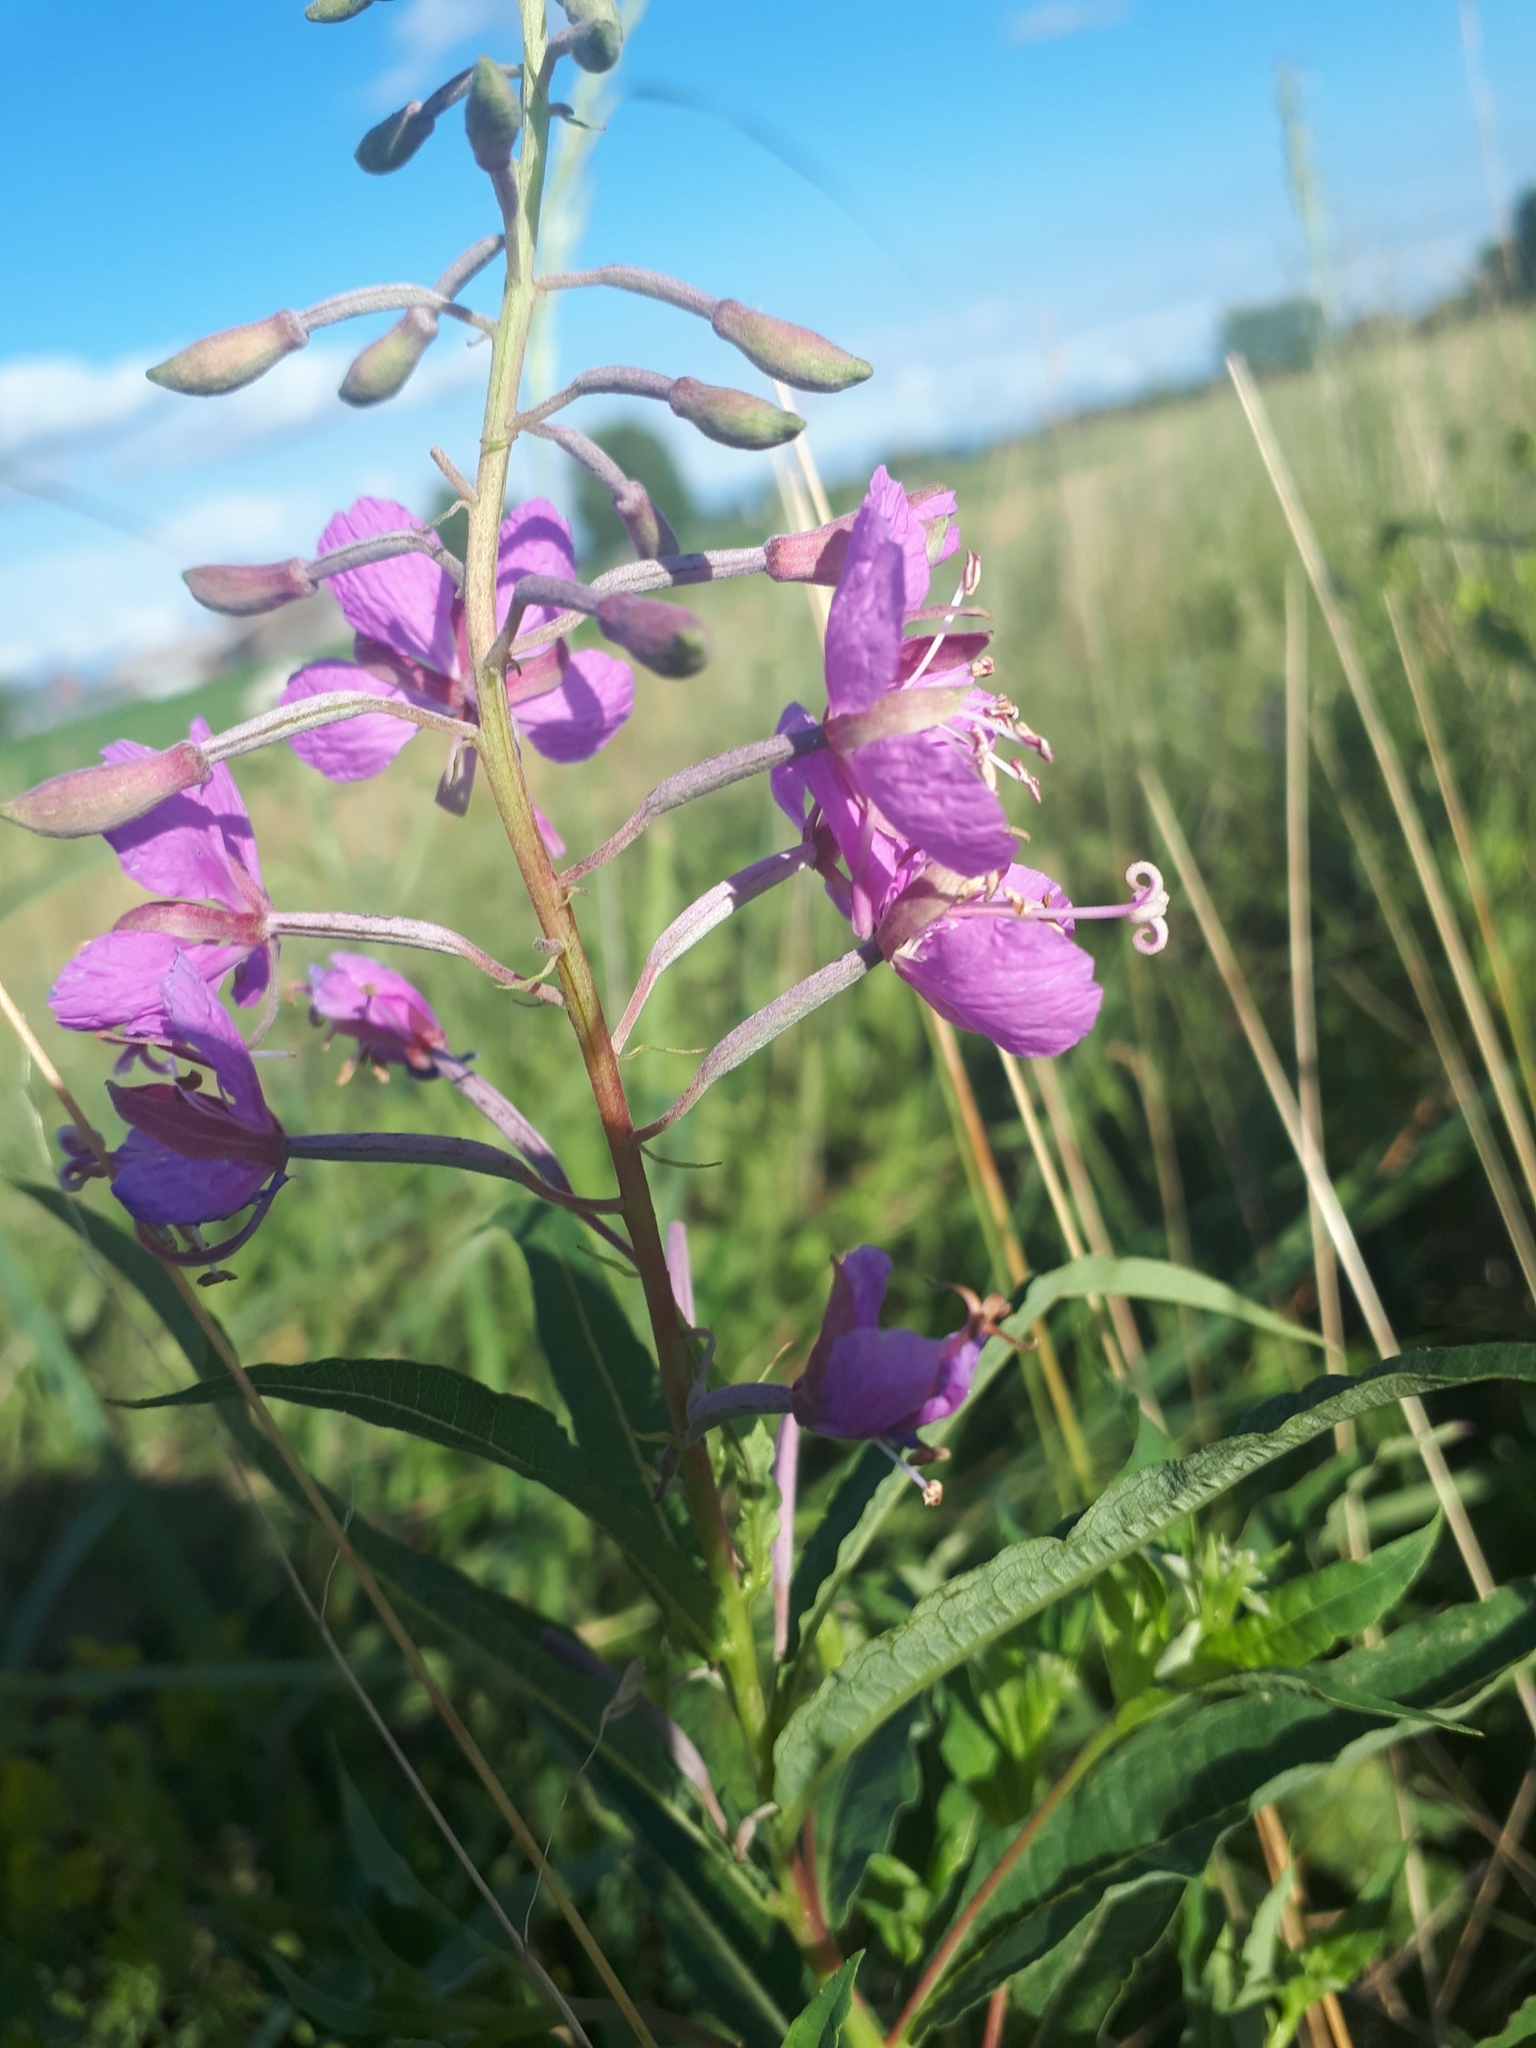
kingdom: Plantae
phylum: Tracheophyta
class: Magnoliopsida
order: Myrtales
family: Onagraceae
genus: Chamaenerion
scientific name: Chamaenerion angustifolium
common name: Fireweed
